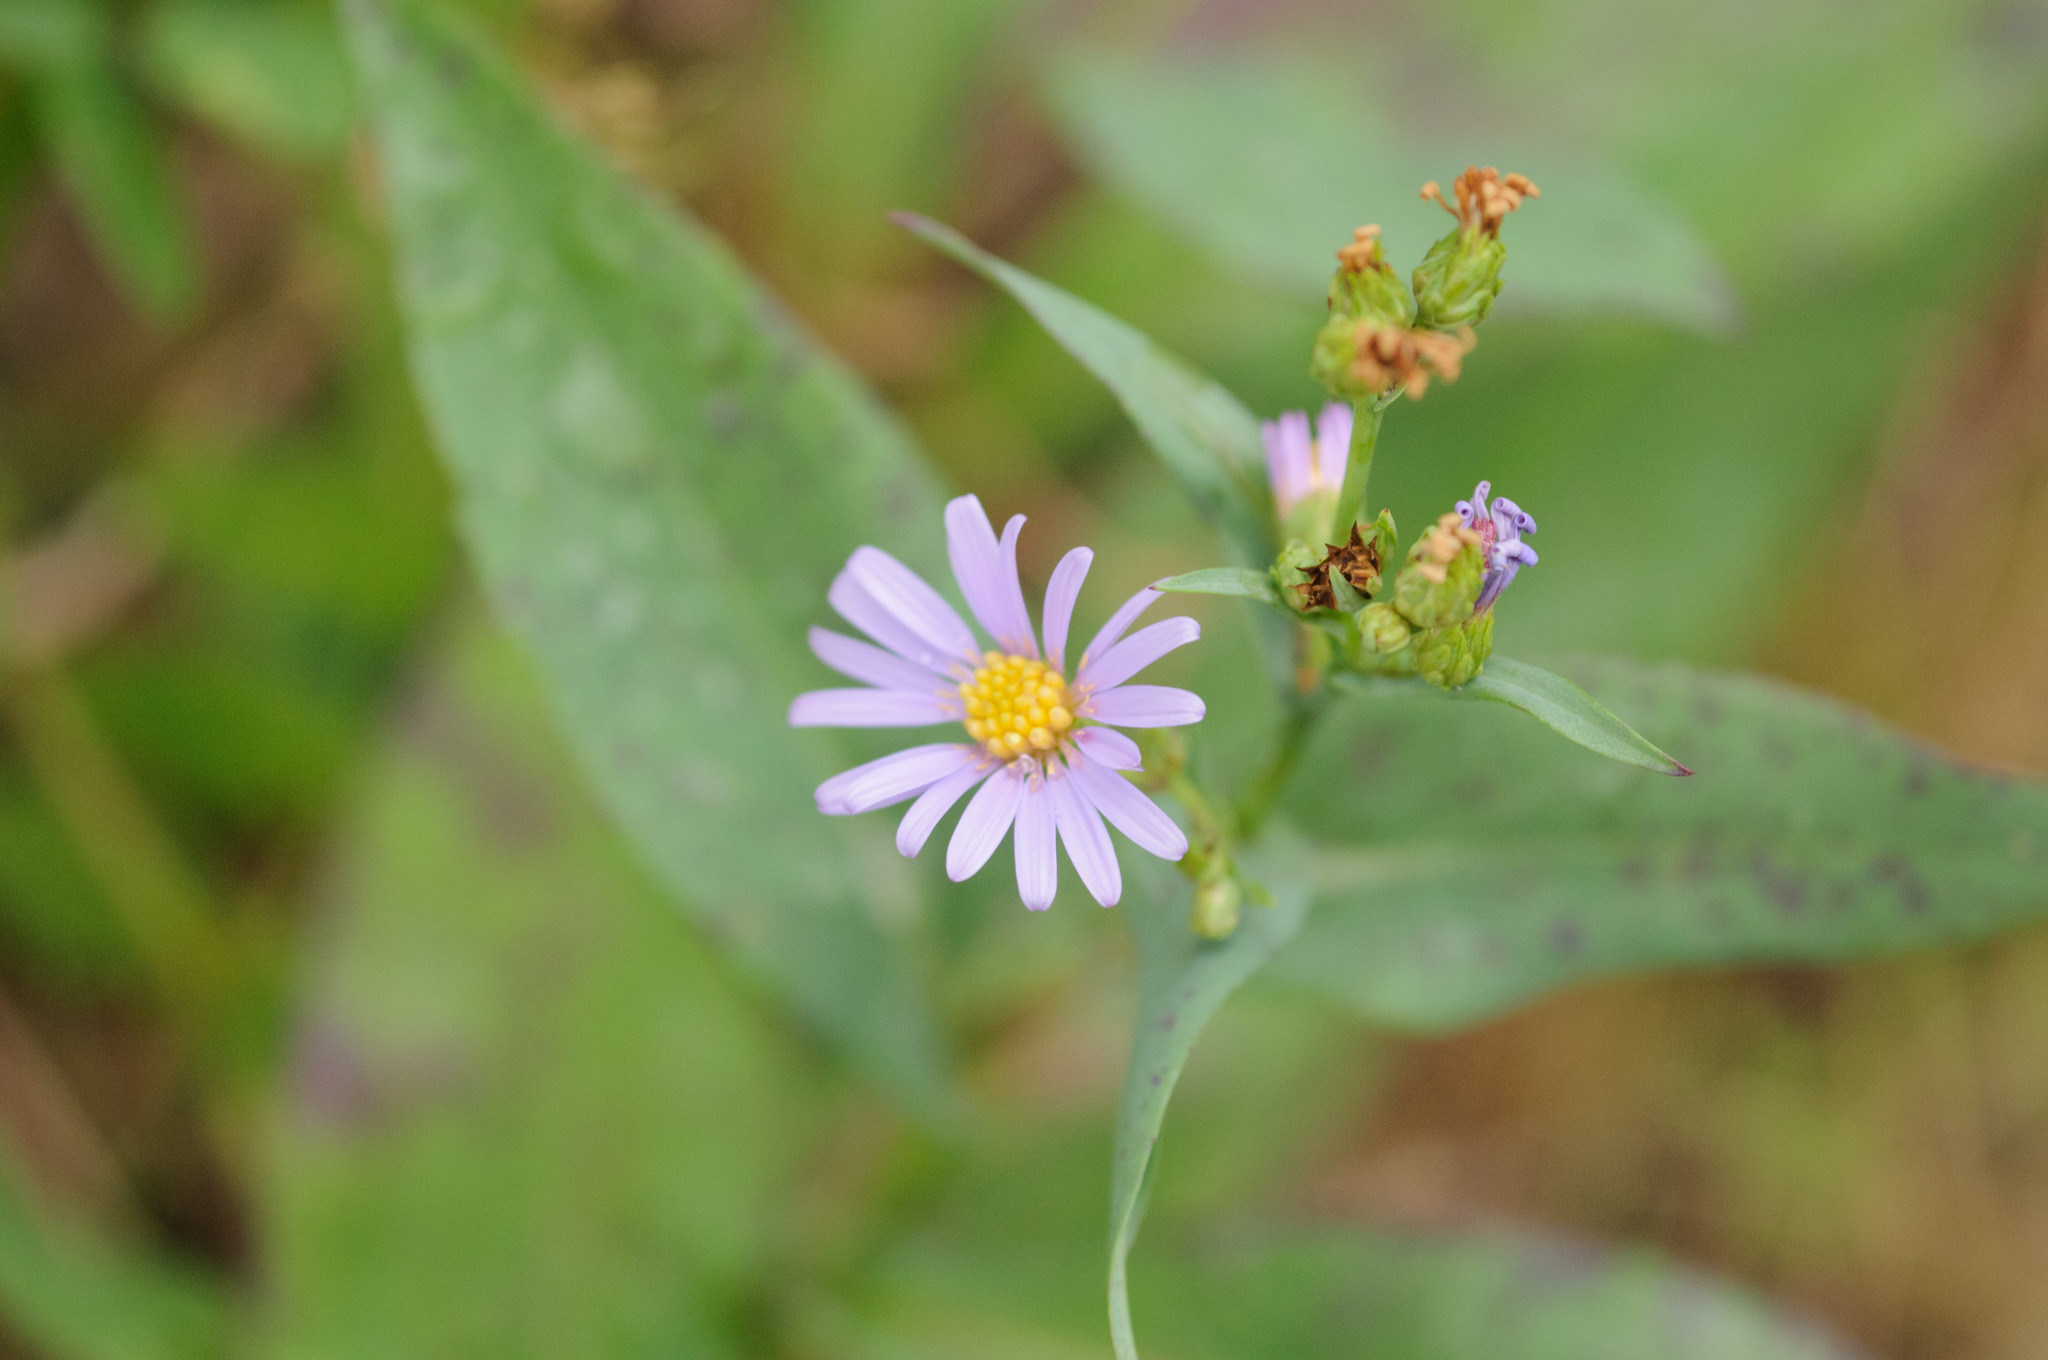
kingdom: Plantae
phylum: Tracheophyta
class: Magnoliopsida
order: Asterales
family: Asteraceae
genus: Symphyotrichum
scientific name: Symphyotrichum laeve
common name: Glaucous aster
